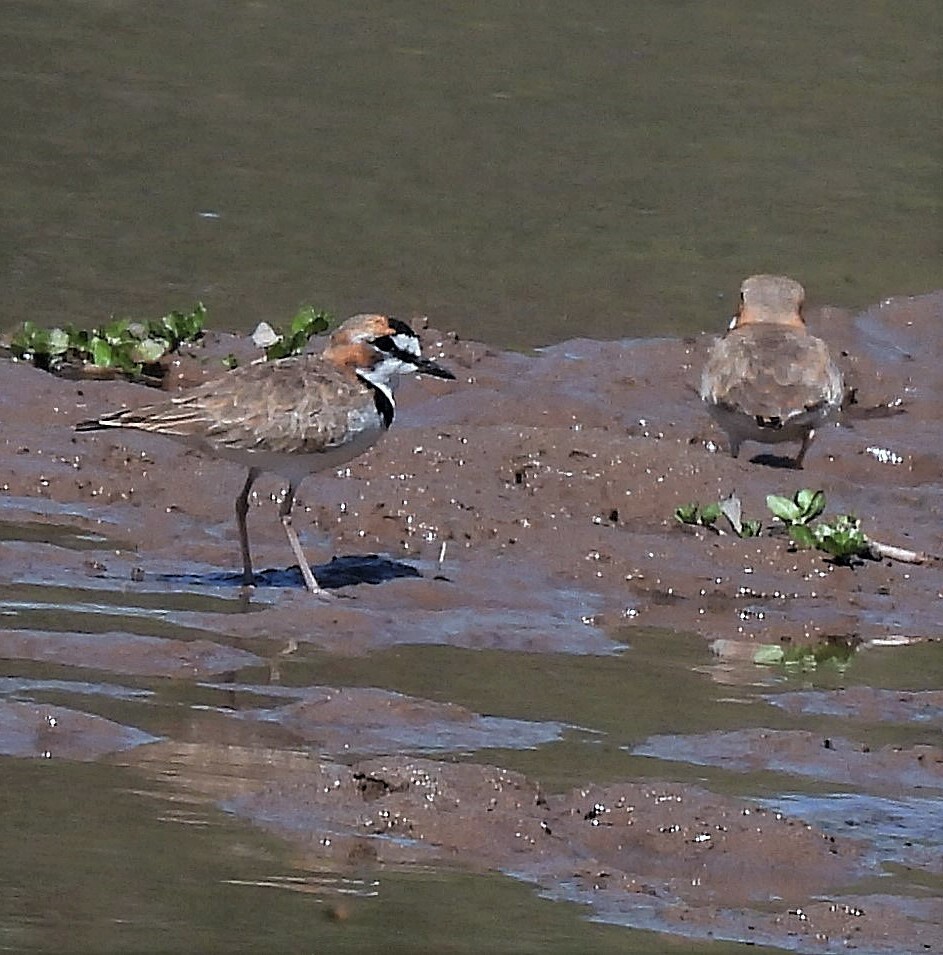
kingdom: Animalia
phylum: Chordata
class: Aves
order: Charadriiformes
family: Charadriidae
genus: Anarhynchus
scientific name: Anarhynchus
